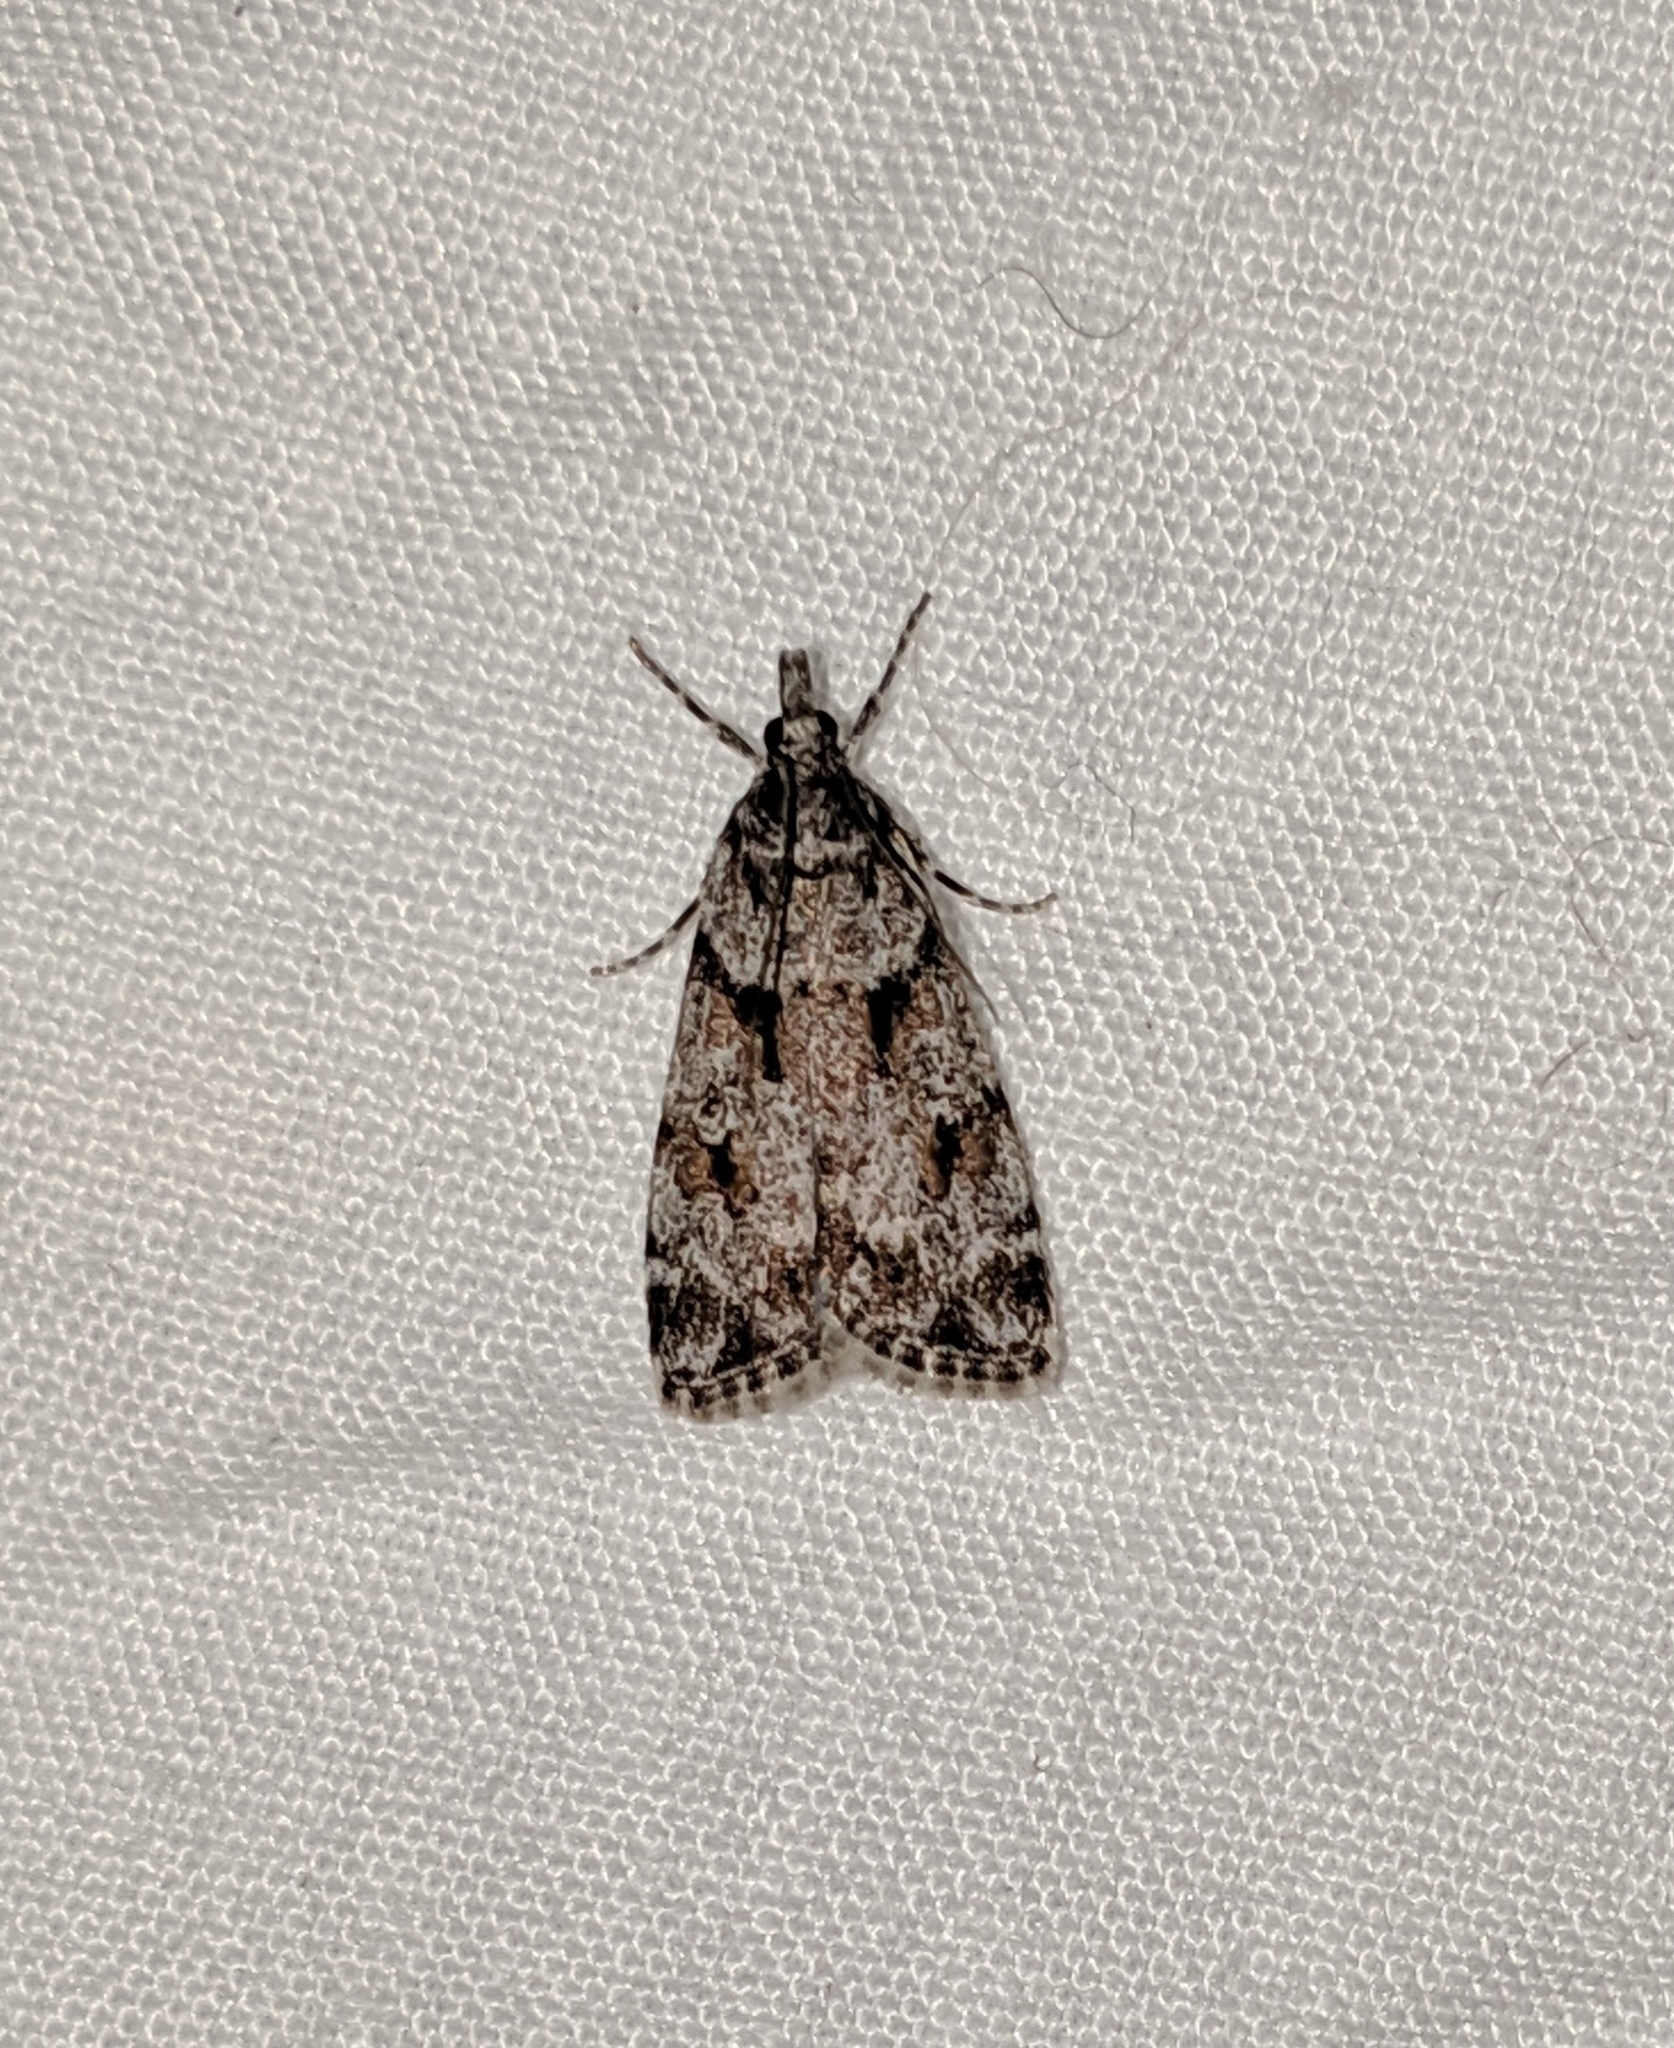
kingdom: Animalia
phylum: Arthropoda
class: Insecta
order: Lepidoptera
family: Crambidae
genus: Scoparia
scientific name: Scoparia biplagialis
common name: Double-striped scoparia moth
